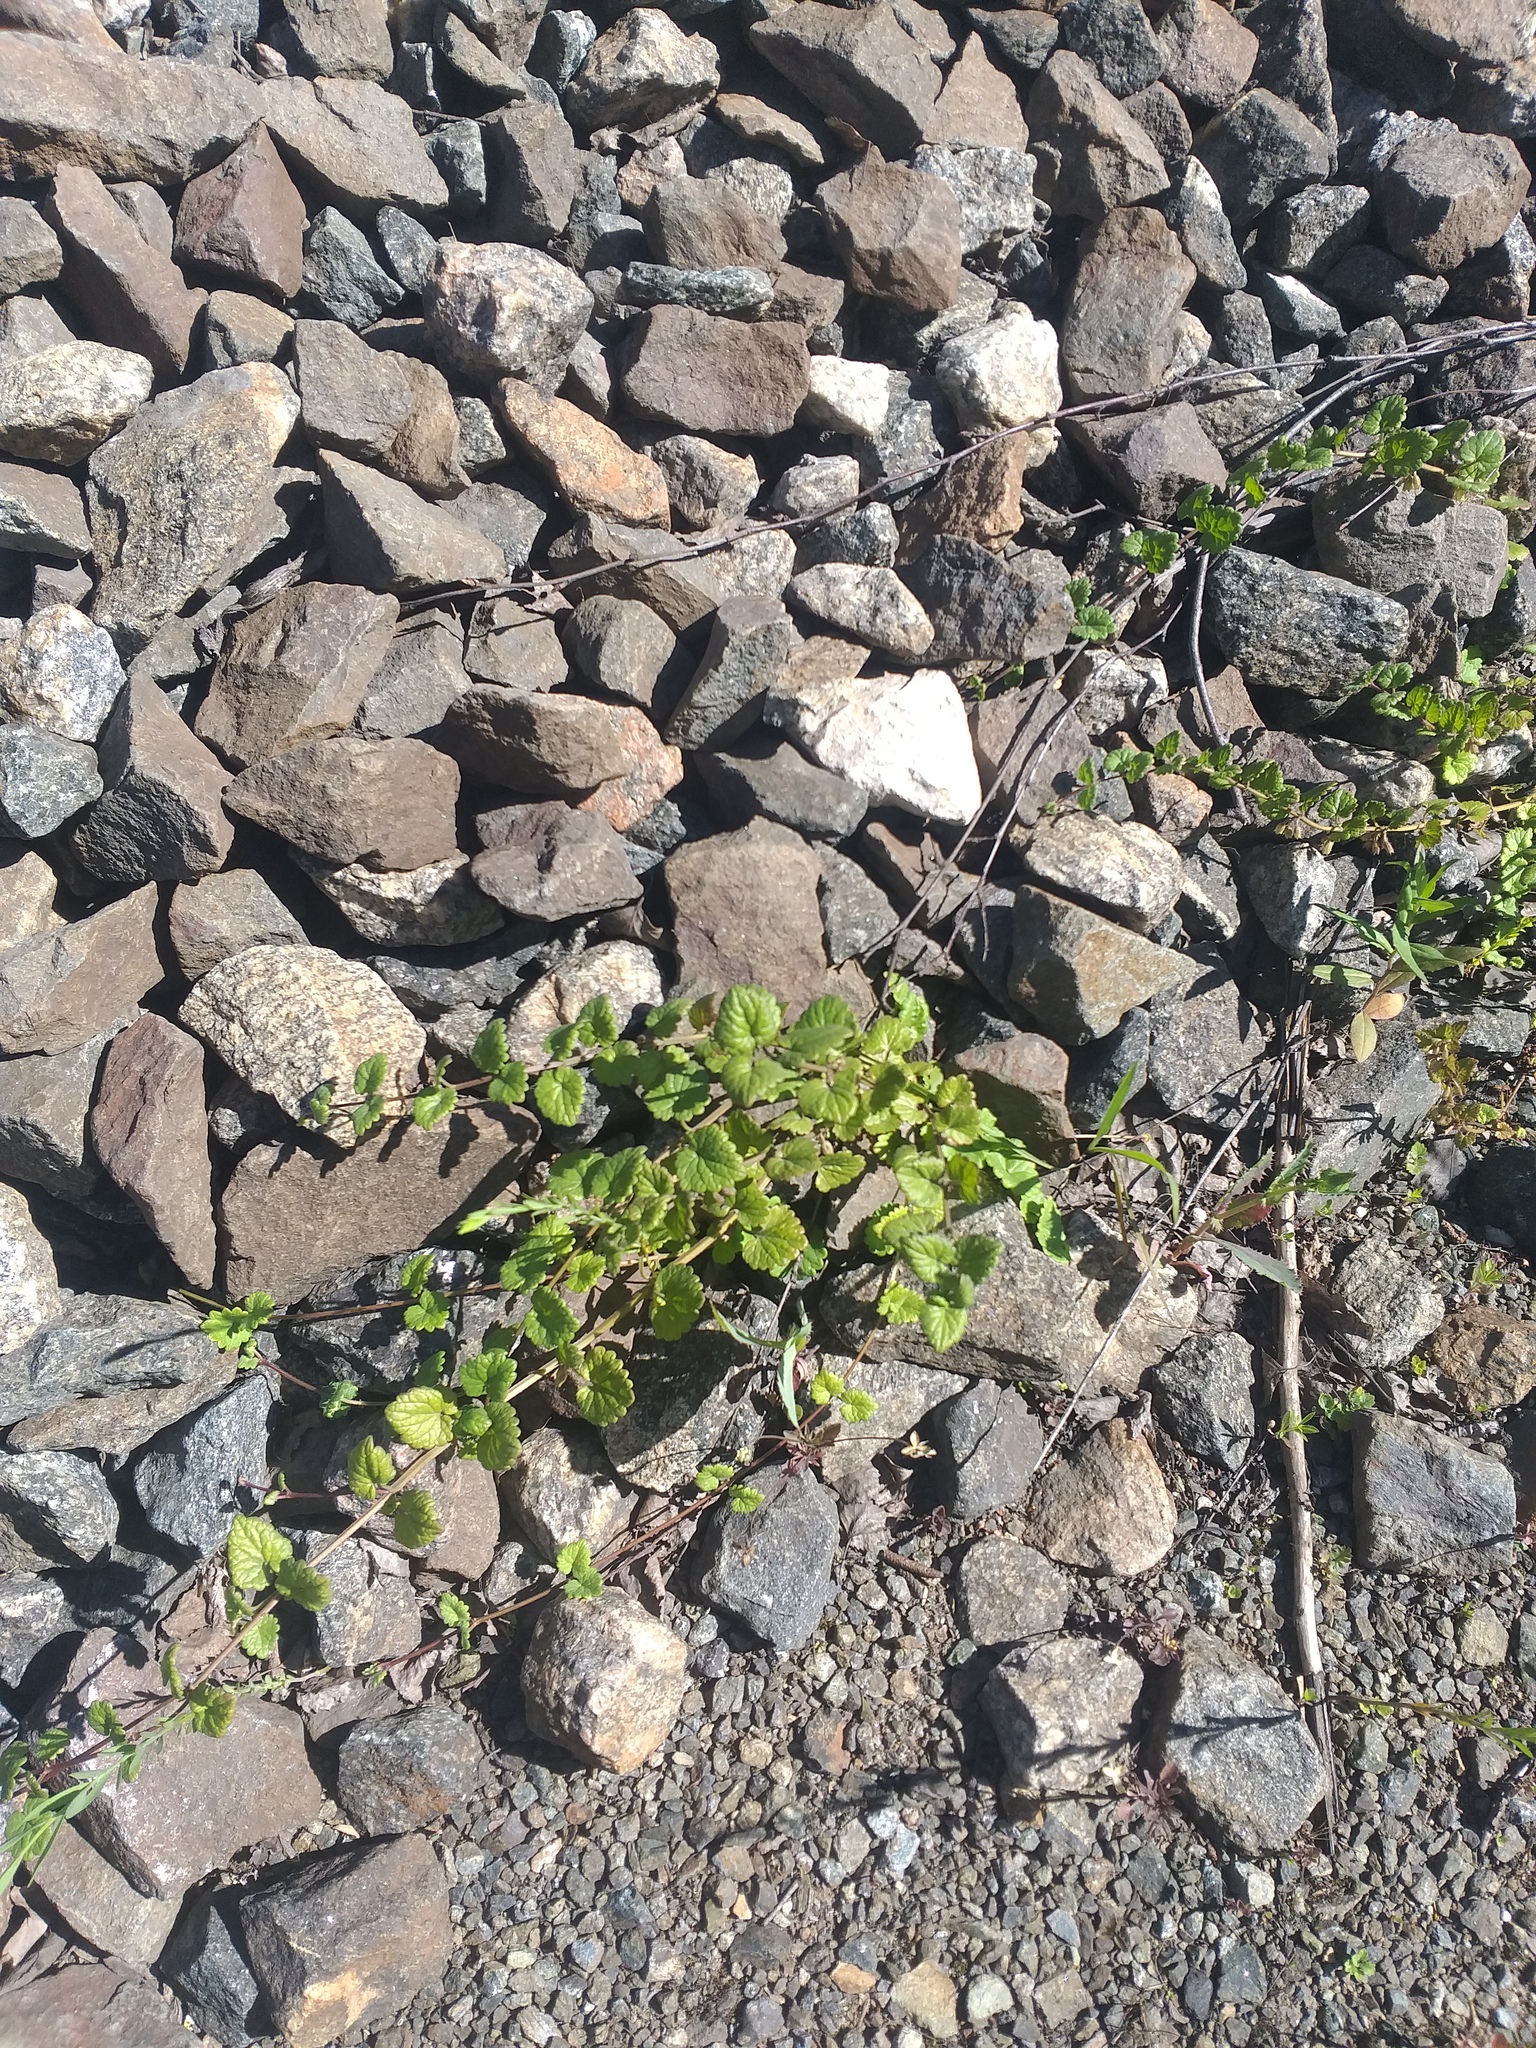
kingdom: Plantae
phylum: Tracheophyta
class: Magnoliopsida
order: Lamiales
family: Lamiaceae
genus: Glechoma
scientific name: Glechoma hederacea
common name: Ground ivy
